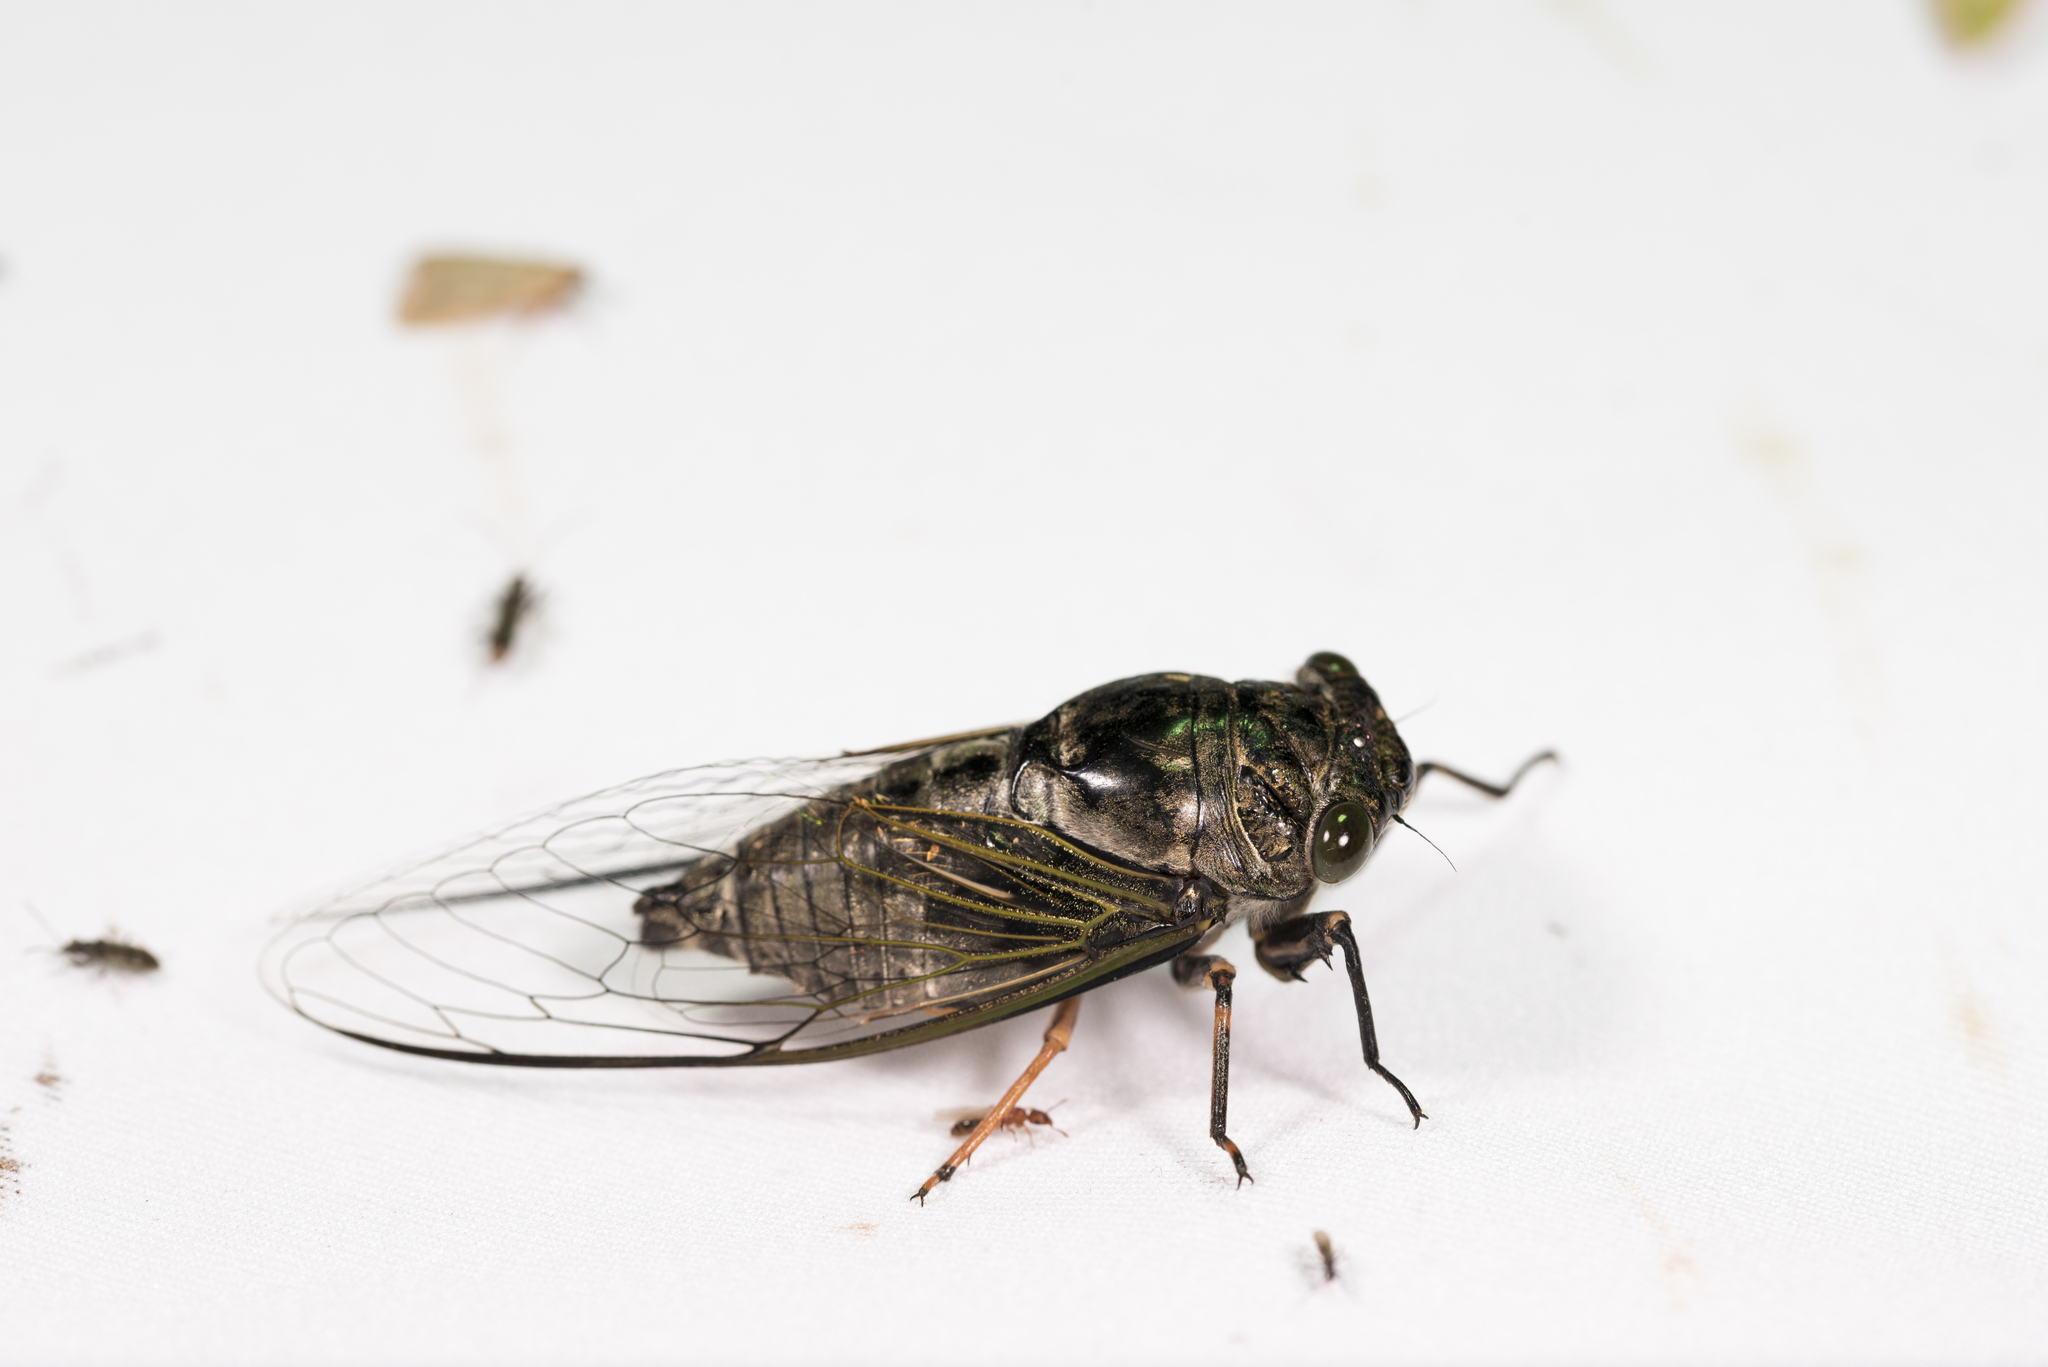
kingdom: Animalia
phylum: Arthropoda
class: Insecta
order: Hemiptera
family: Cicadidae
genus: Cryptotympana
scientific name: Cryptotympana takasagona
